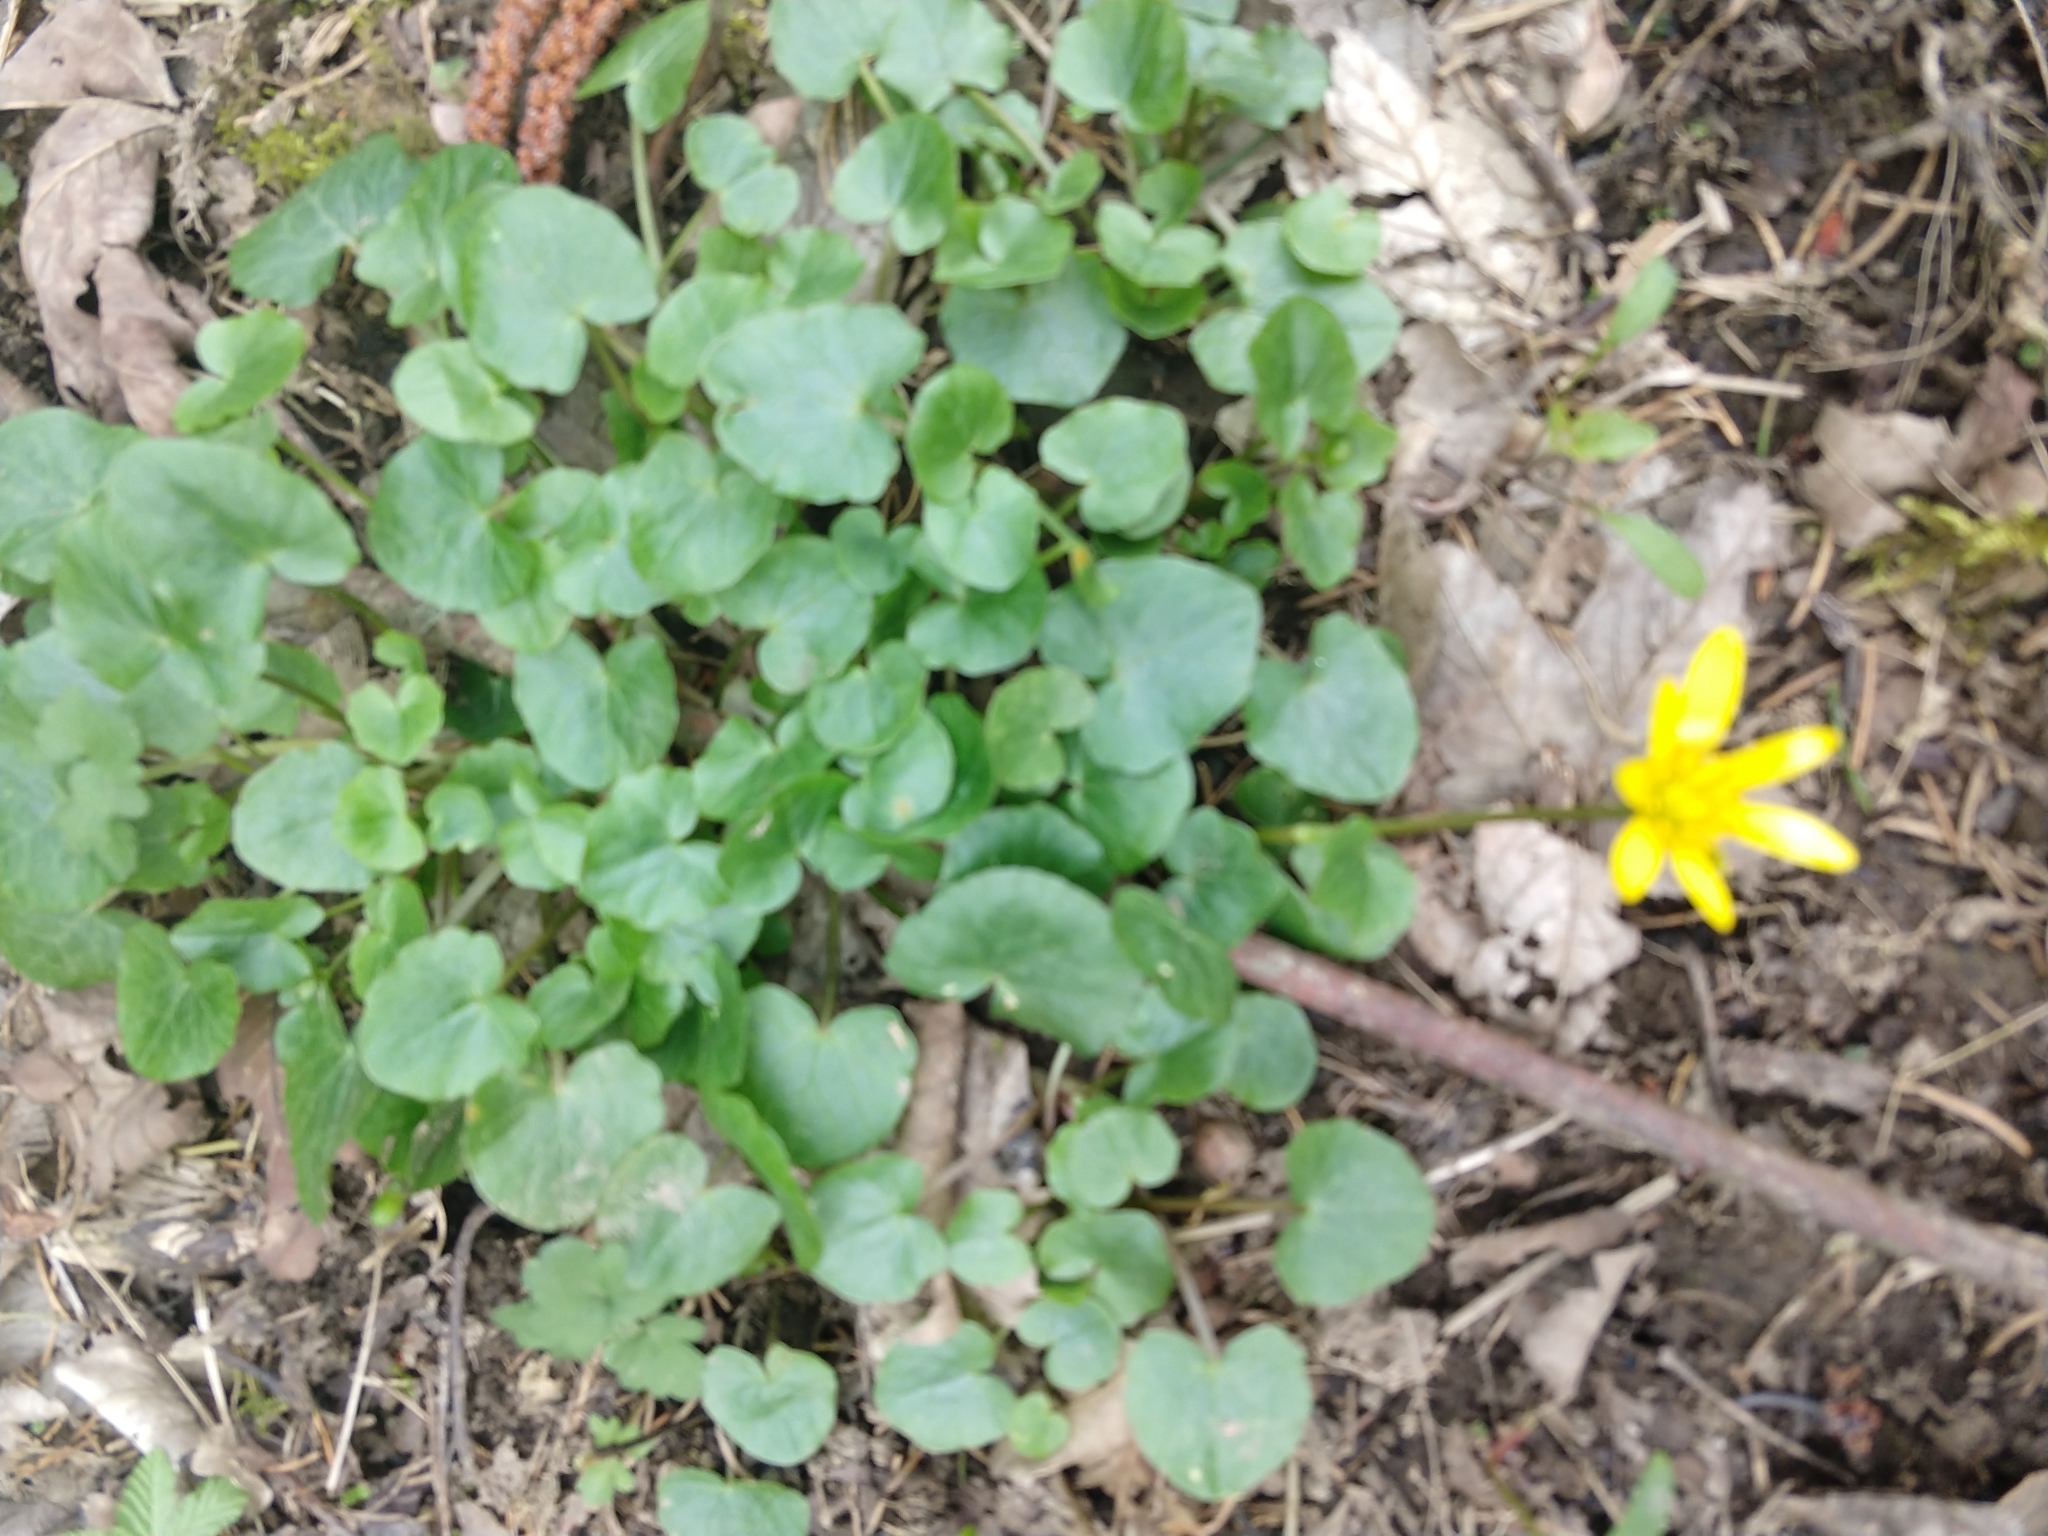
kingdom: Plantae
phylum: Tracheophyta
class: Magnoliopsida
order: Ranunculales
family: Ranunculaceae
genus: Ficaria
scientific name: Ficaria verna
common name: Lesser celandine
